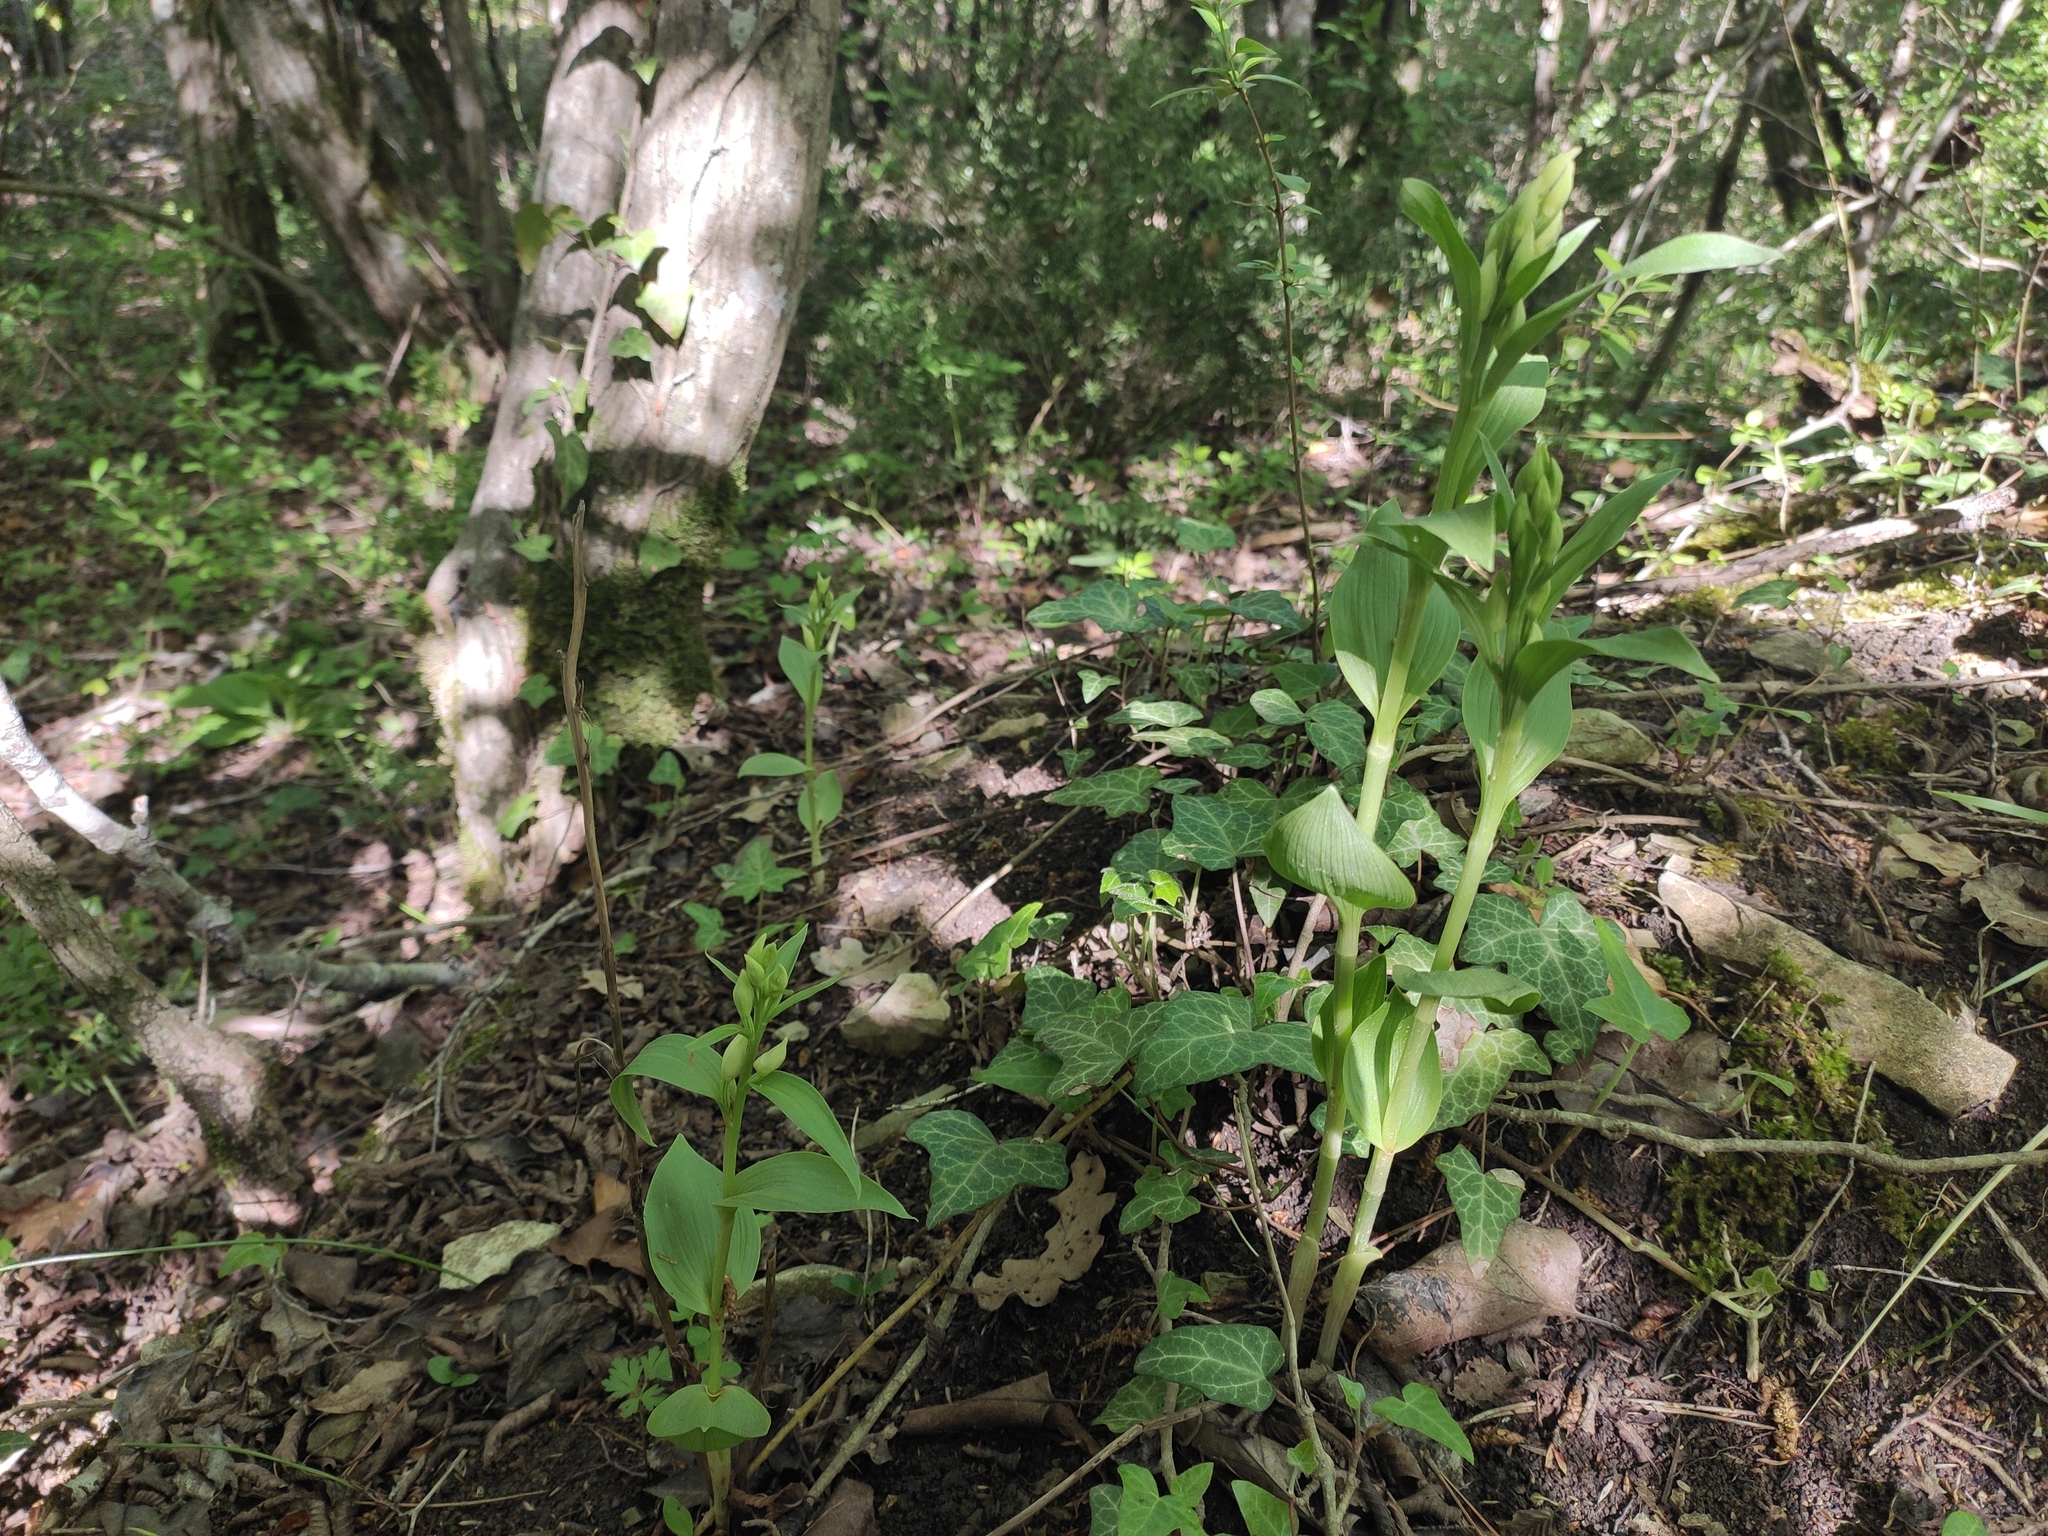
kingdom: Plantae
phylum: Tracheophyta
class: Liliopsida
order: Asparagales
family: Orchidaceae
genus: Cephalanthera
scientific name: Cephalanthera damasonium
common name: White helleborine
